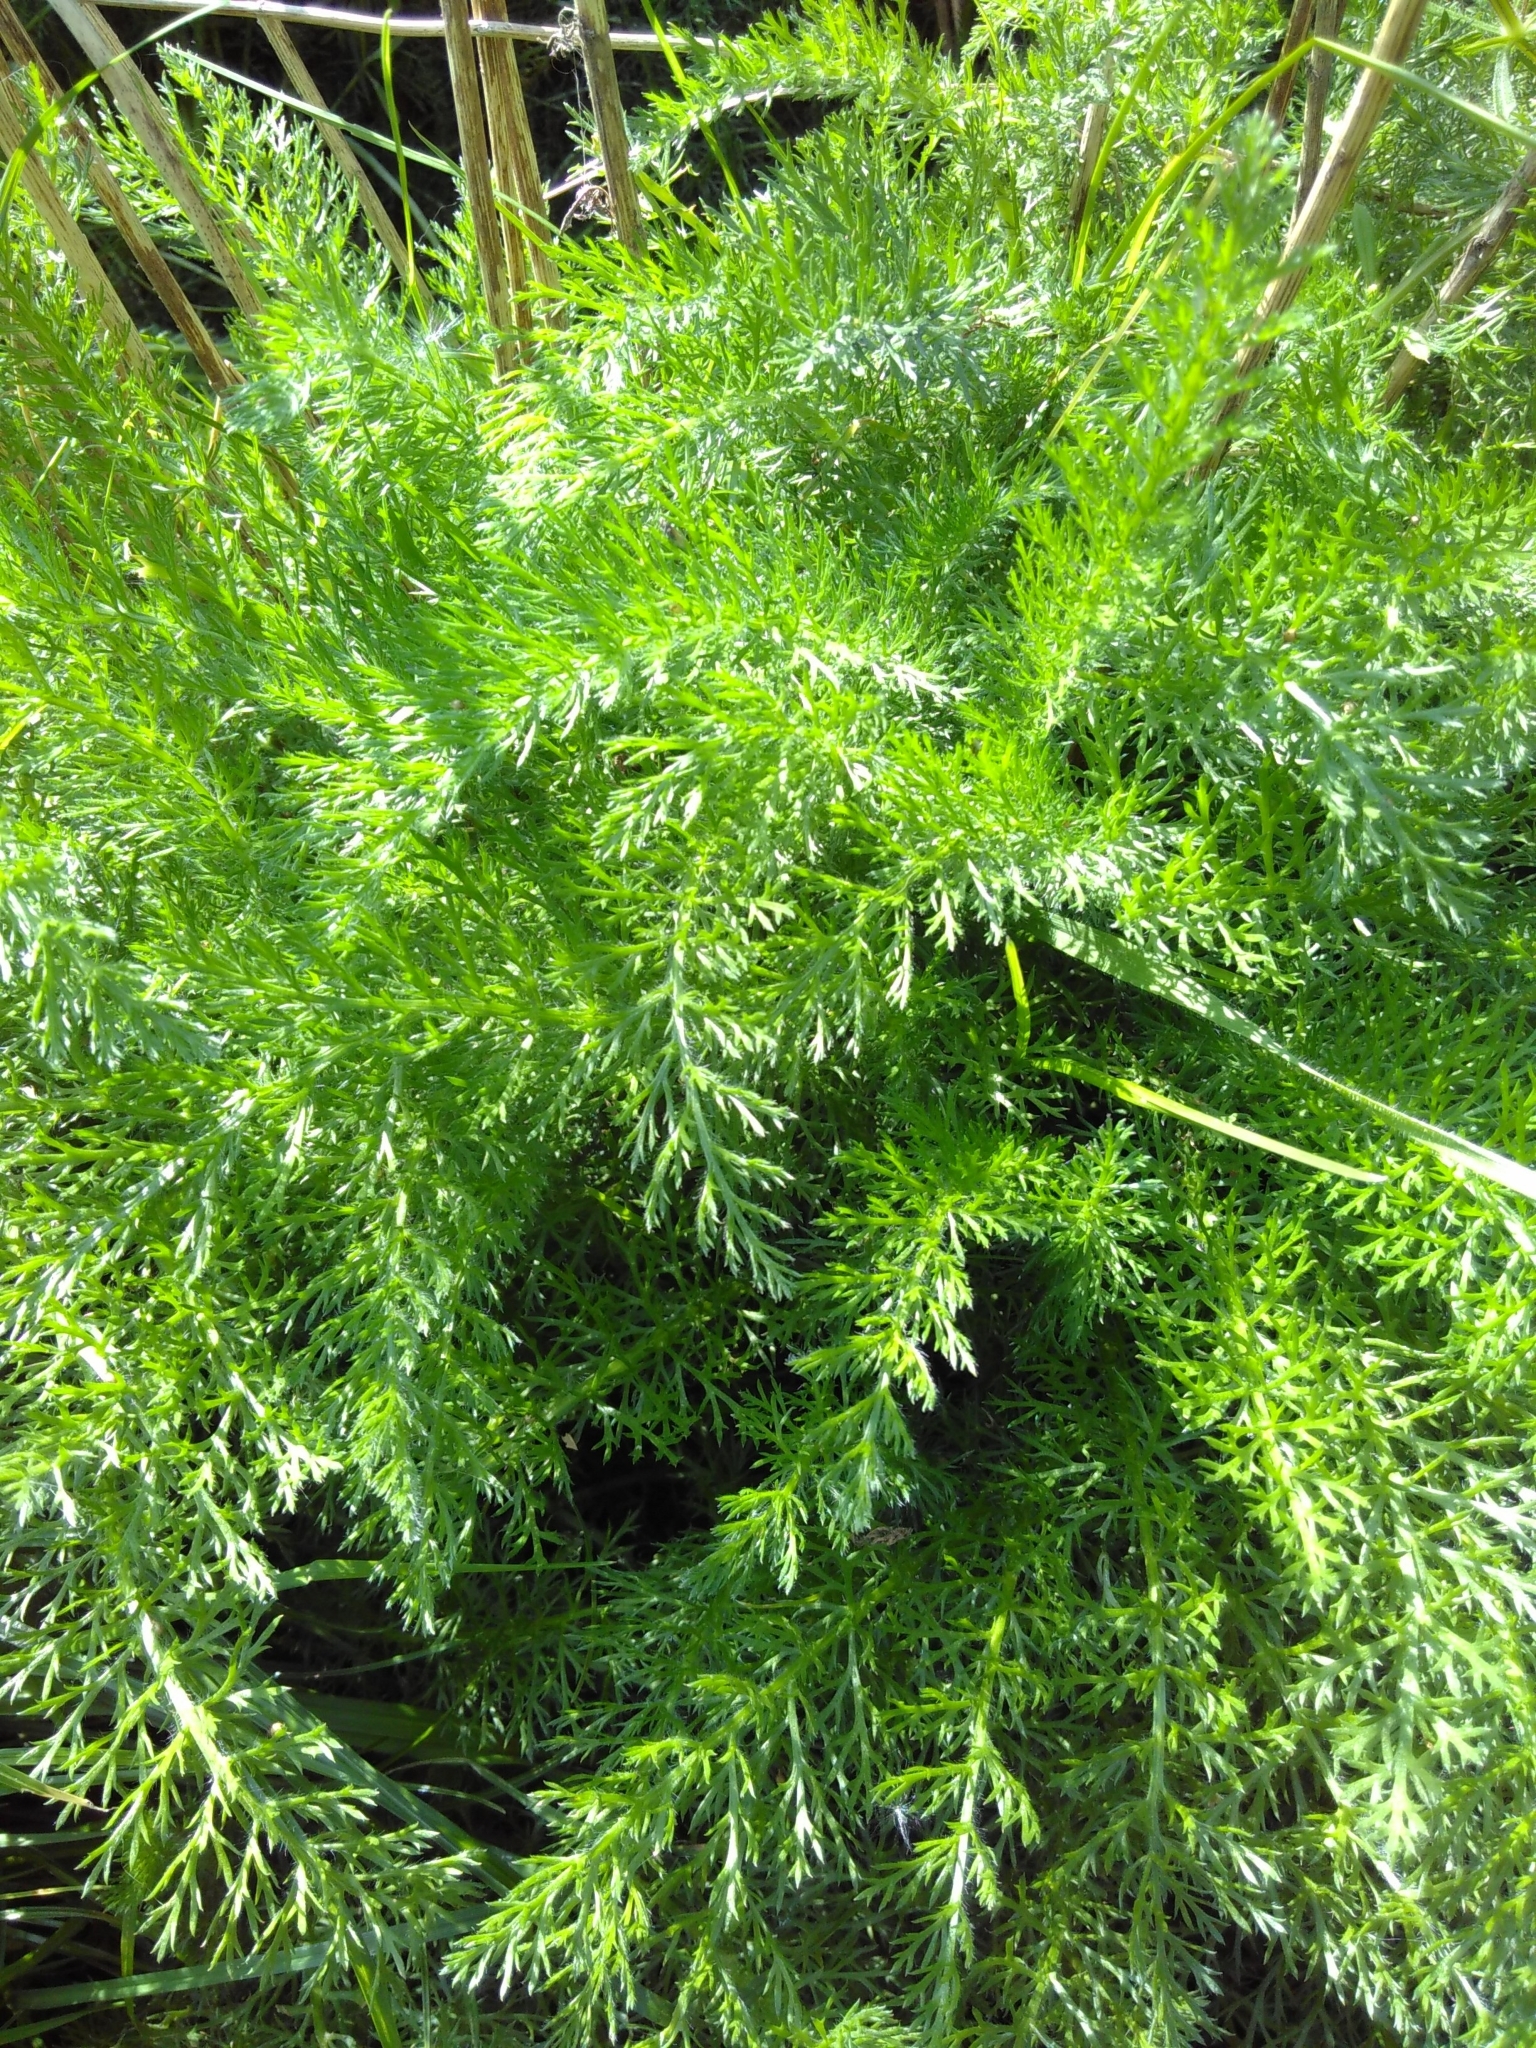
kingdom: Plantae
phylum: Tracheophyta
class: Magnoliopsida
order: Asterales
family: Asteraceae
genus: Achillea
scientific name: Achillea millefolium
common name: Yarrow
